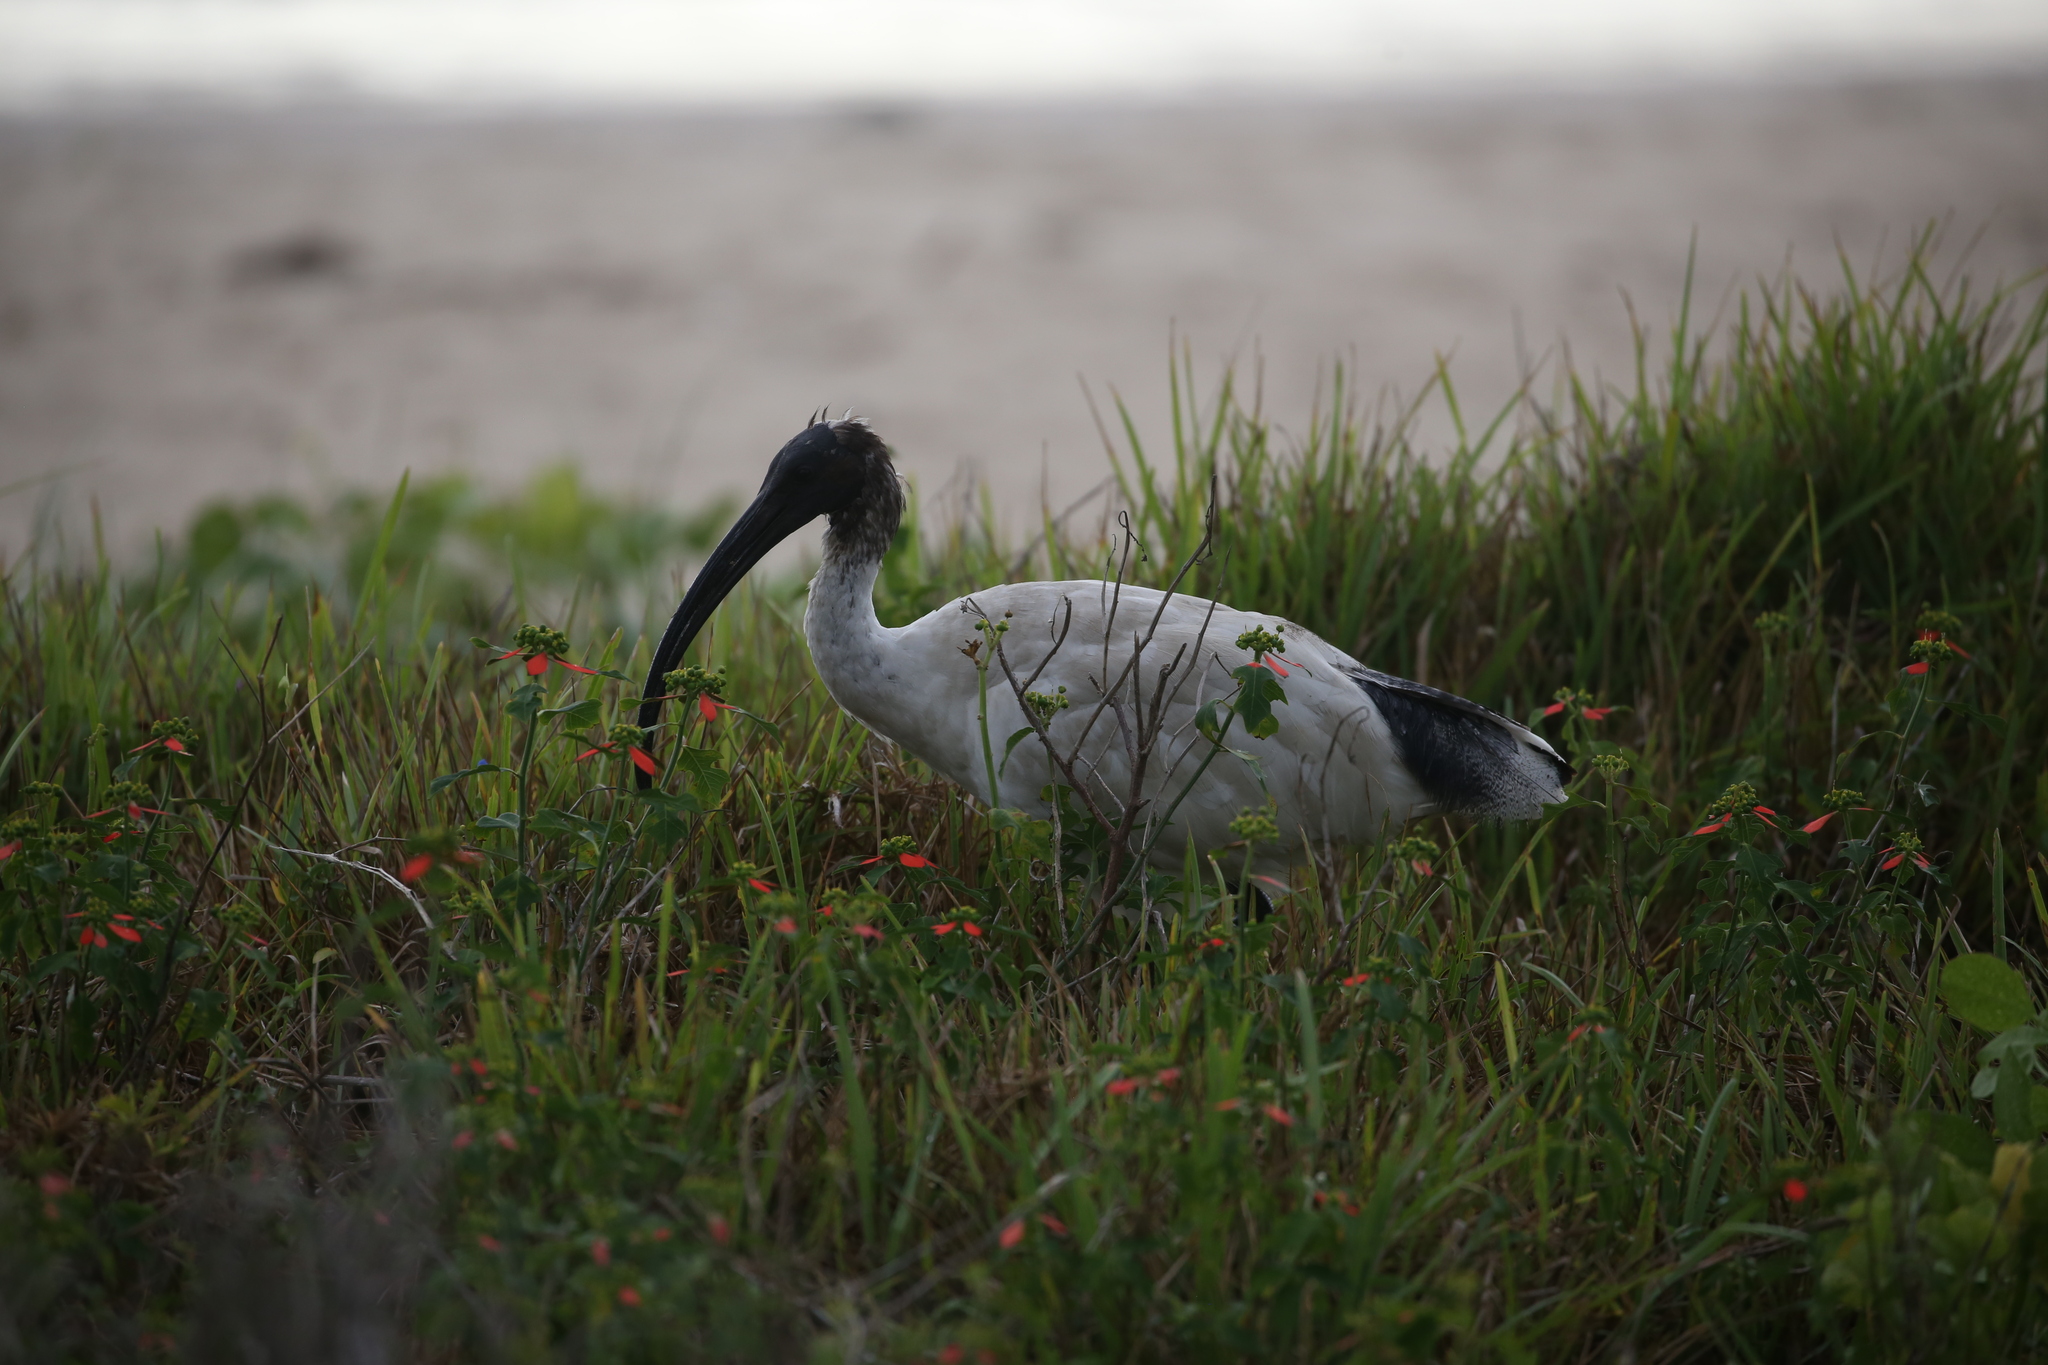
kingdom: Animalia
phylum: Chordata
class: Aves
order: Pelecaniformes
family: Threskiornithidae
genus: Threskiornis
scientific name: Threskiornis molucca
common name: Australian white ibis
